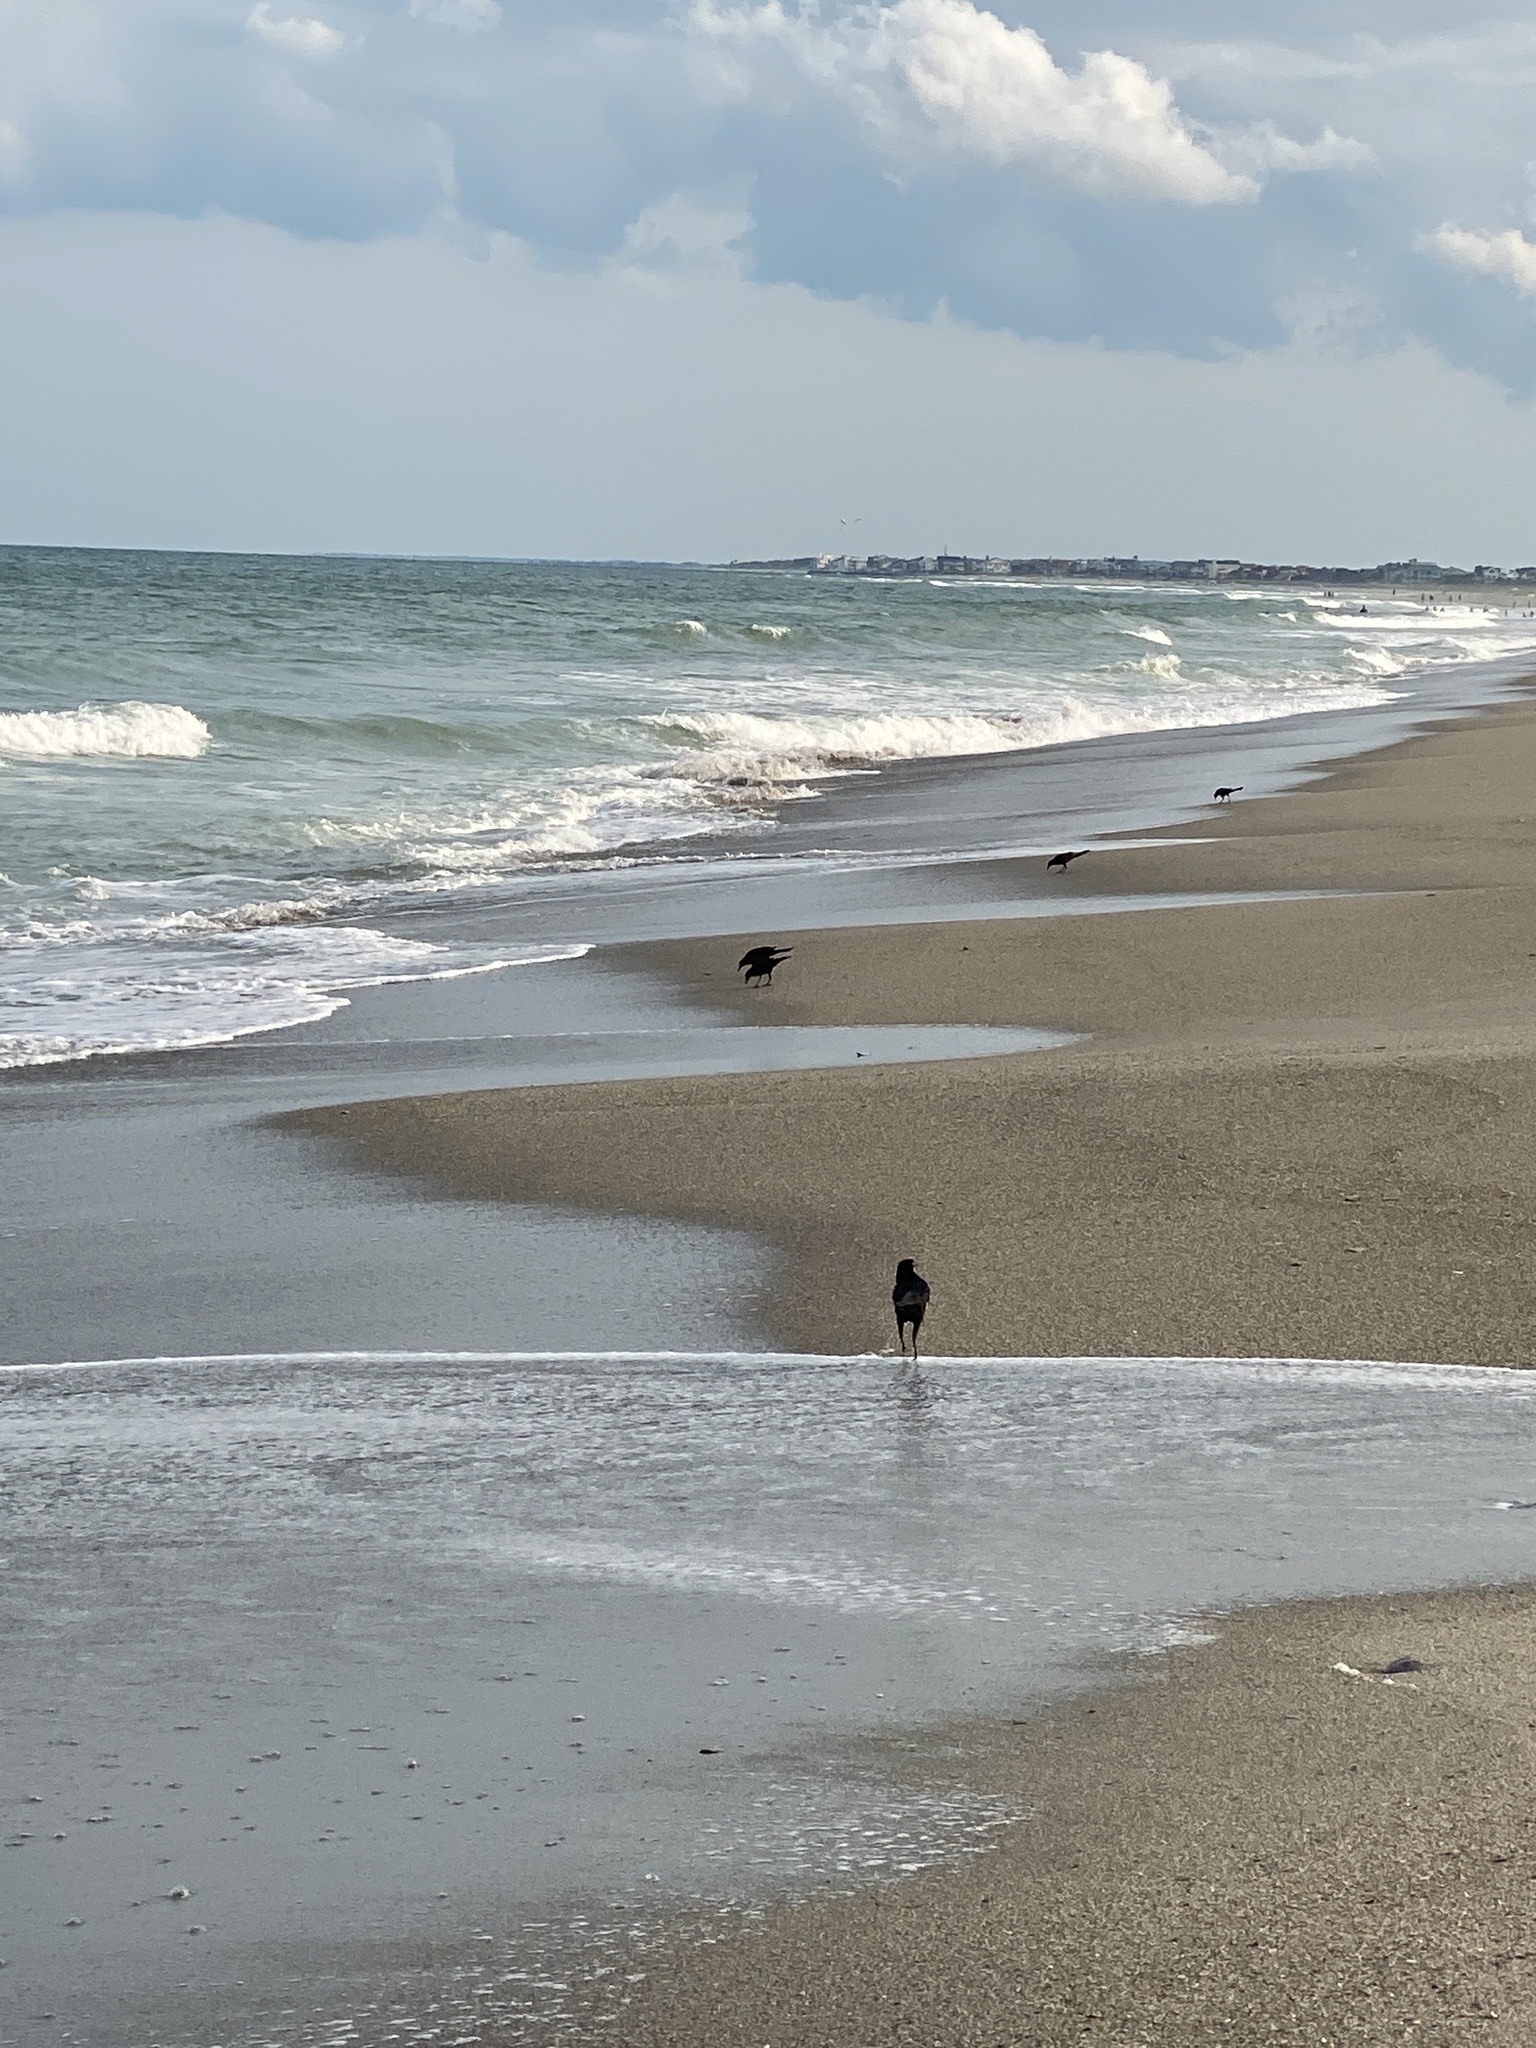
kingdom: Animalia
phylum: Chordata
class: Aves
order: Passeriformes
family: Icteridae
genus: Quiscalus
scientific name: Quiscalus major
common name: Boat-tailed grackle
